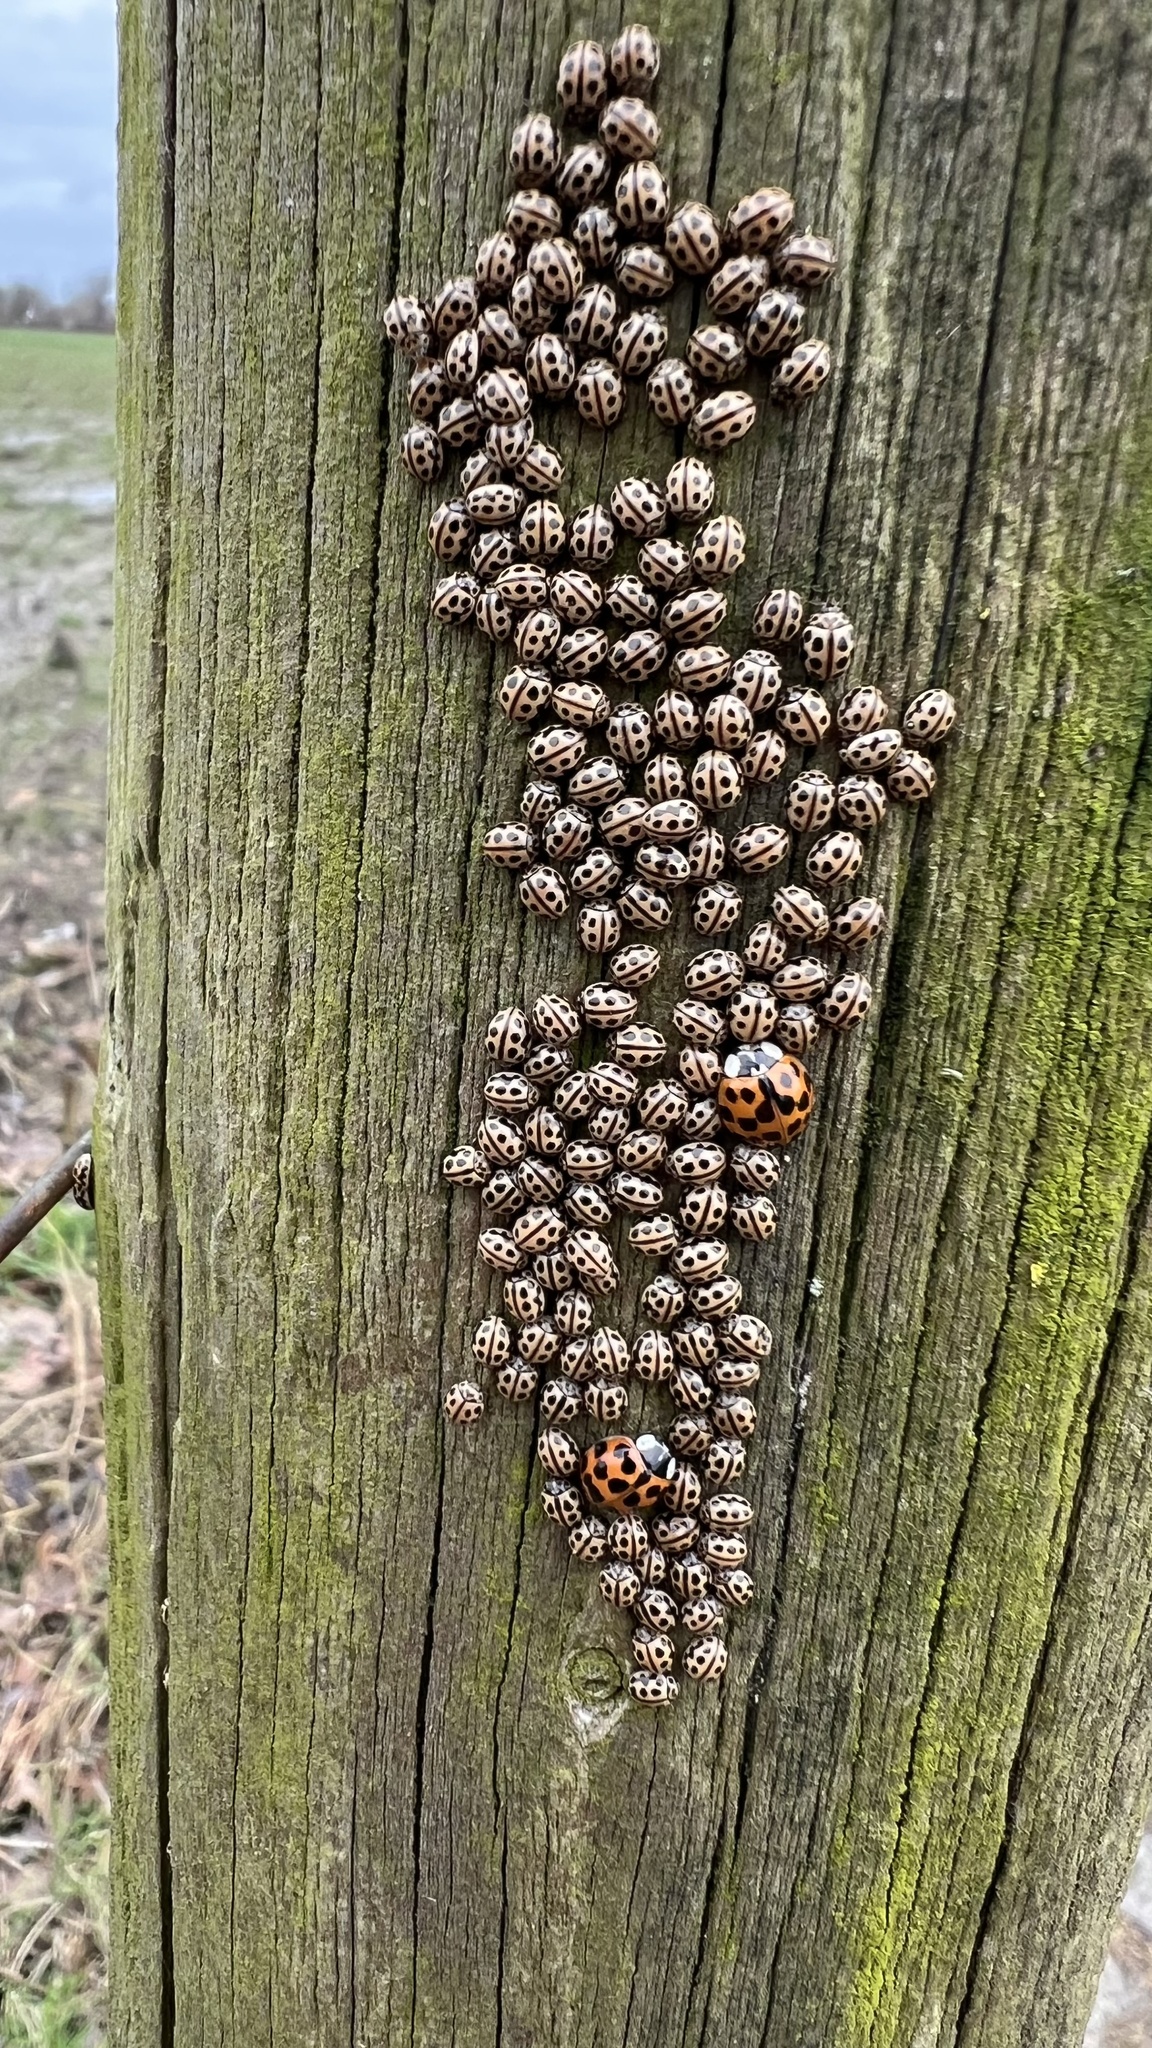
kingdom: Animalia
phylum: Arthropoda
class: Insecta
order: Coleoptera
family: Coccinellidae
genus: Tytthaspis
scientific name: Tytthaspis sedecimpunctata
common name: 16-spot ladybird
